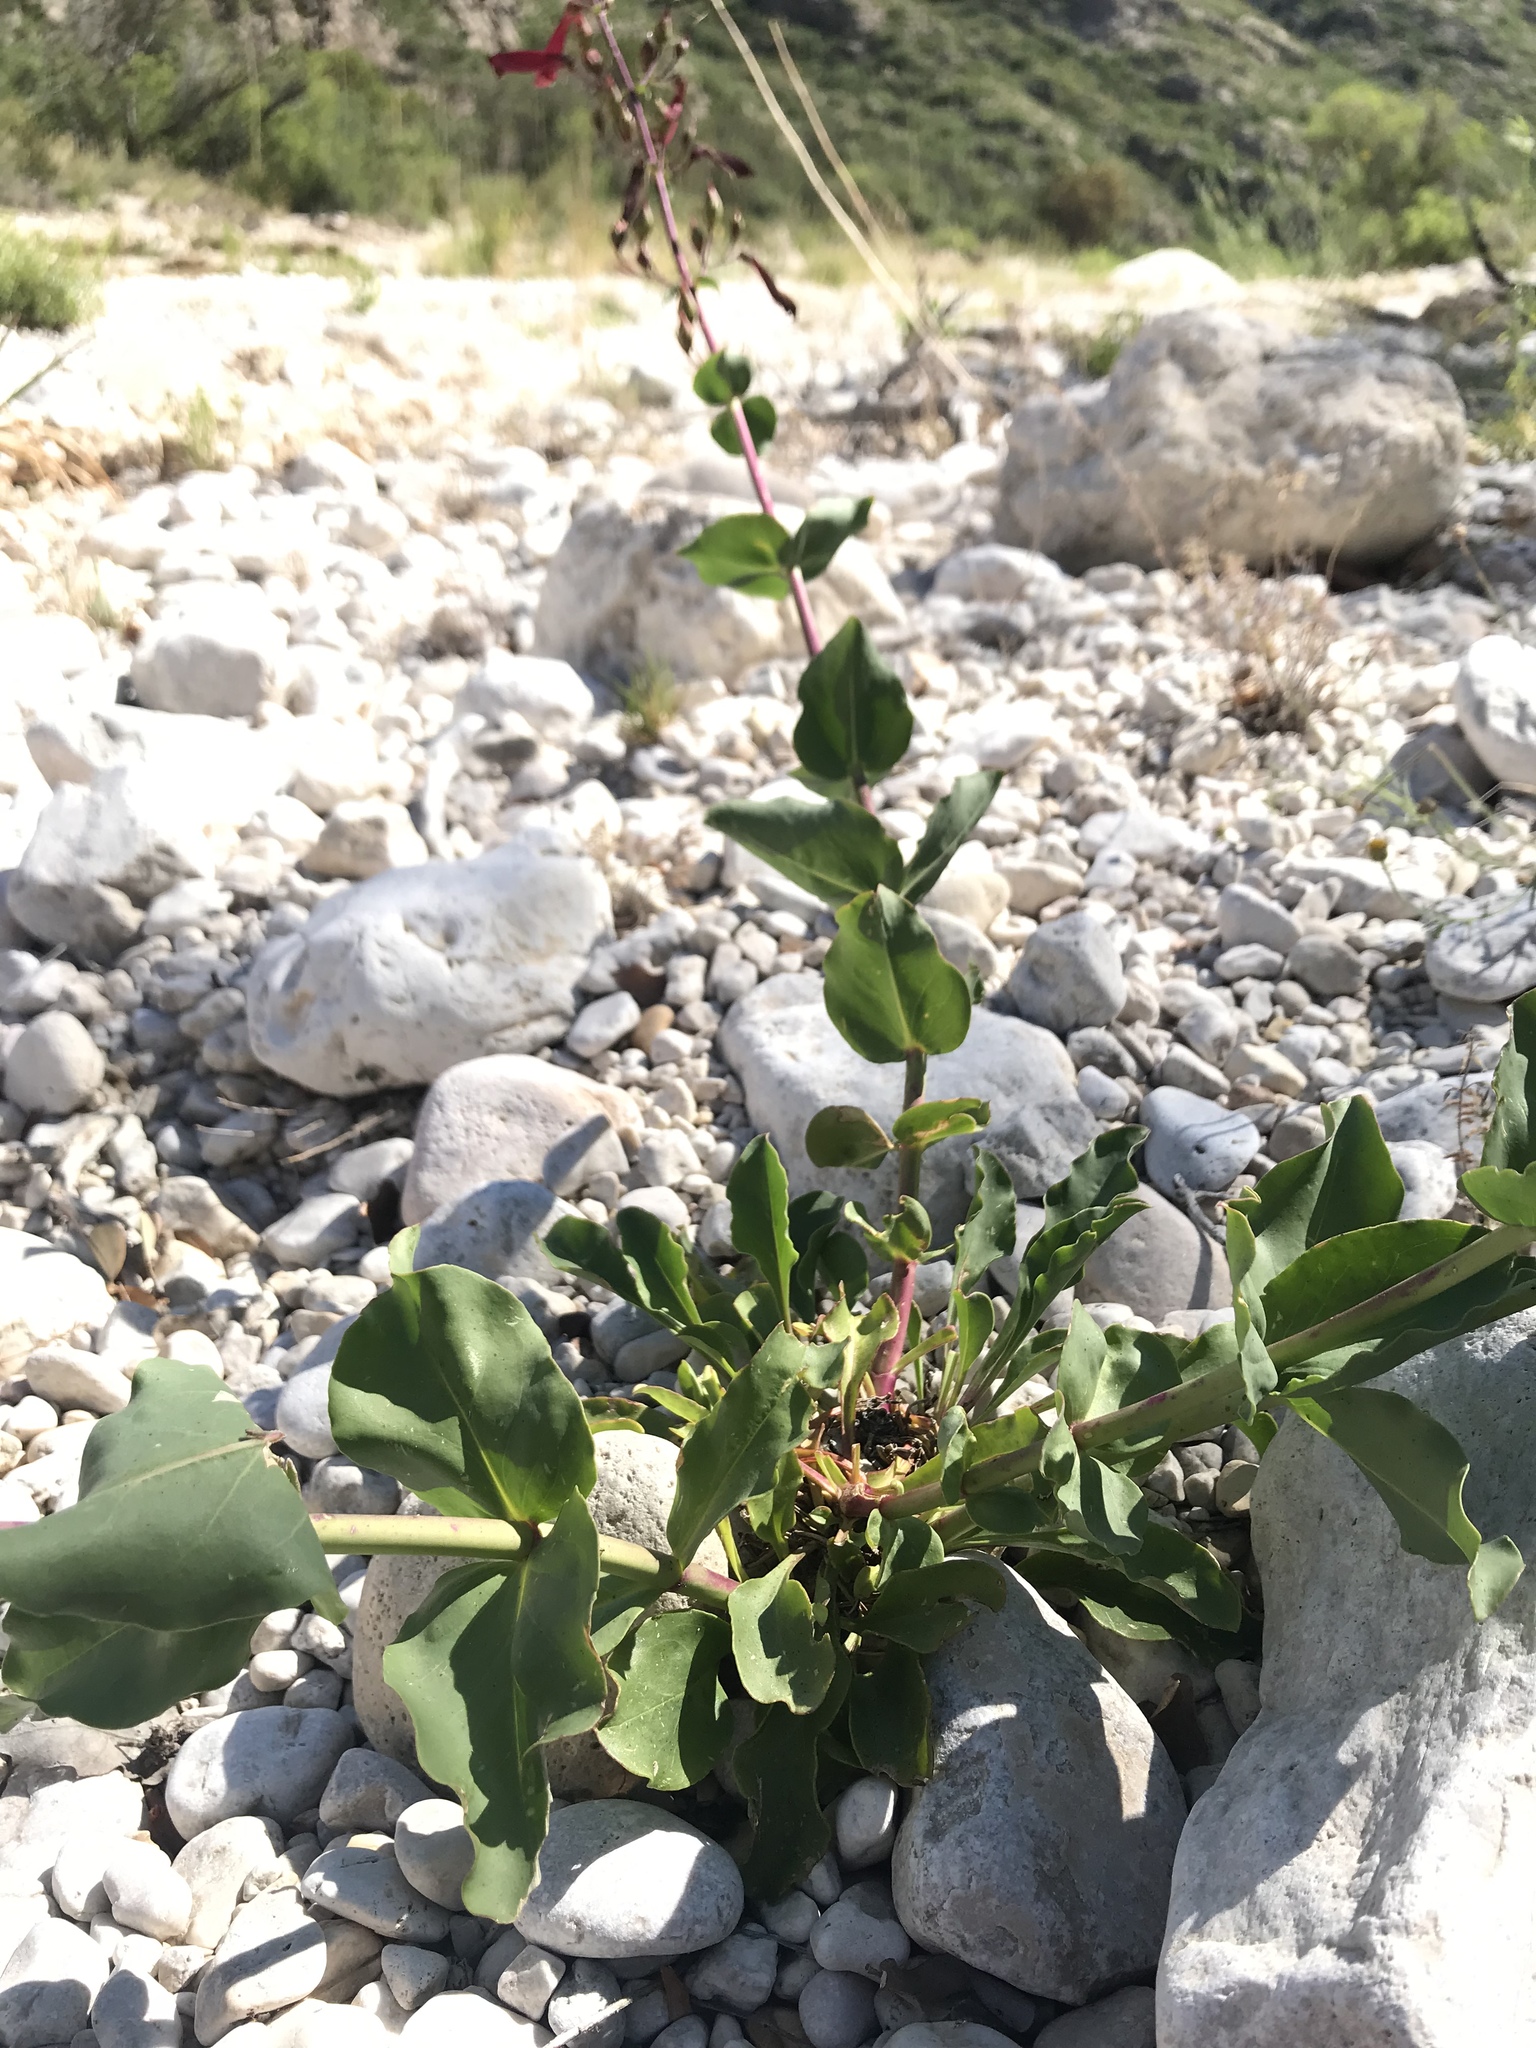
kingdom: Plantae
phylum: Tracheophyta
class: Magnoliopsida
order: Lamiales
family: Plantaginaceae
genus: Penstemon
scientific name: Penstemon cardinalis
